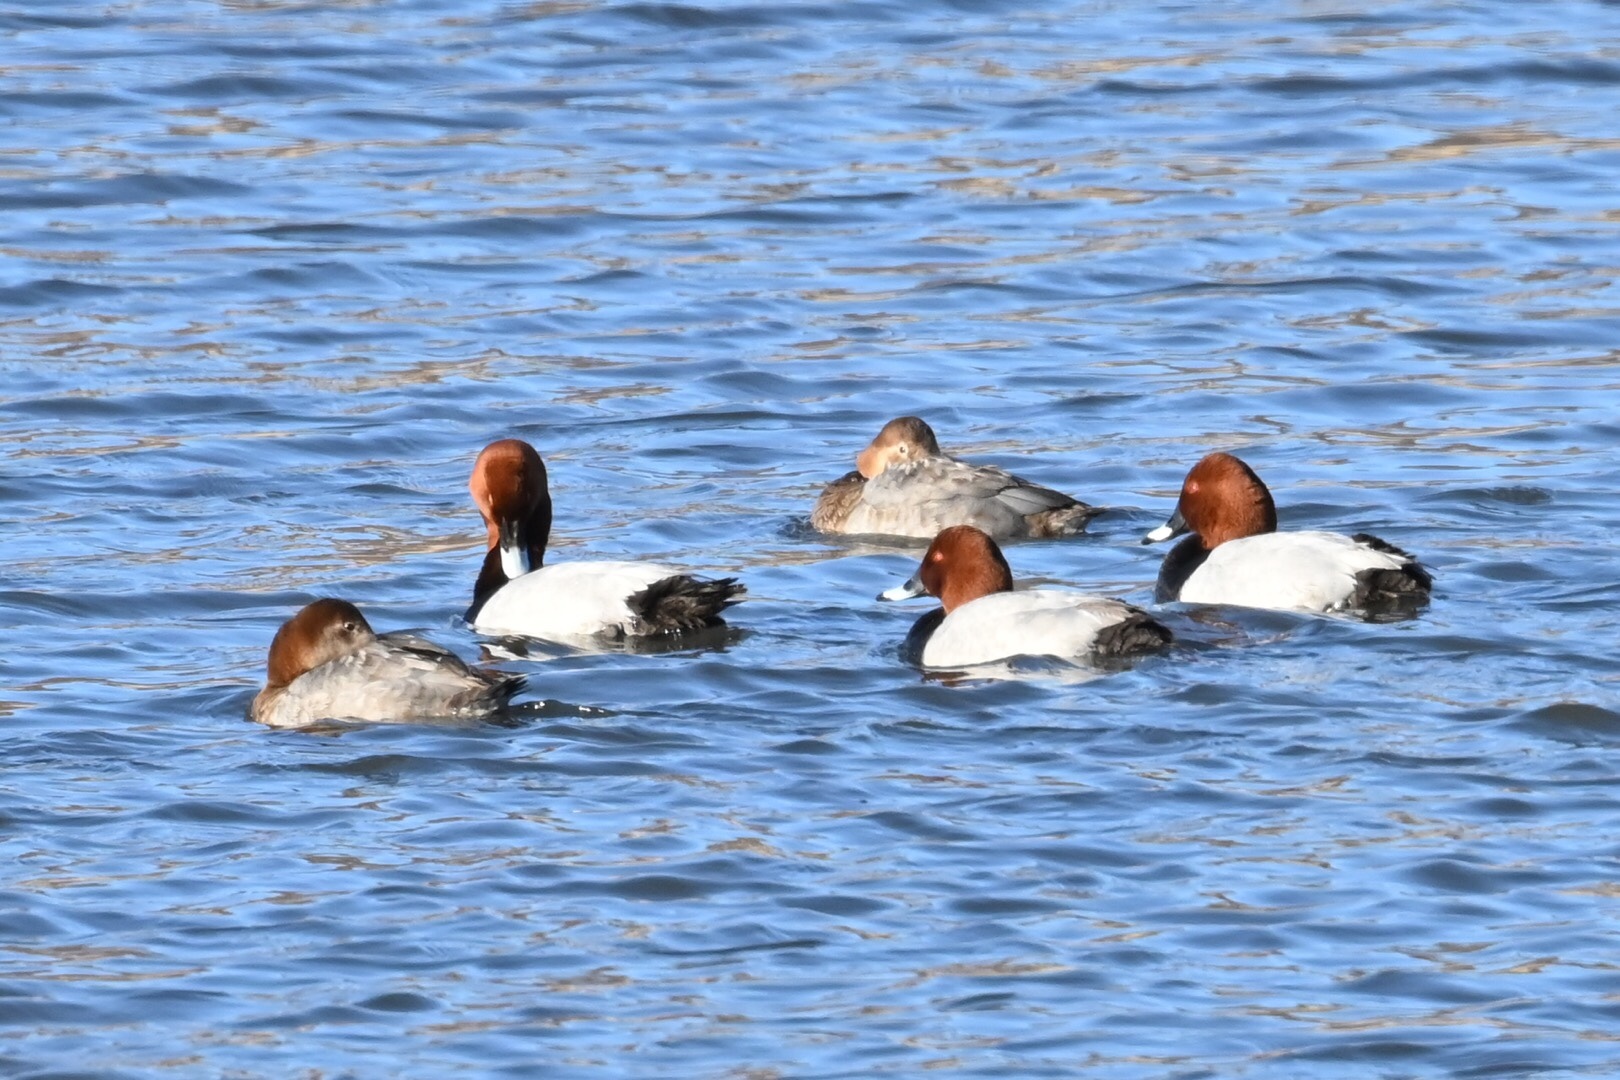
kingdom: Animalia
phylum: Chordata
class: Aves
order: Anseriformes
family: Anatidae
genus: Aythya
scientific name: Aythya ferina
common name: Common pochard
